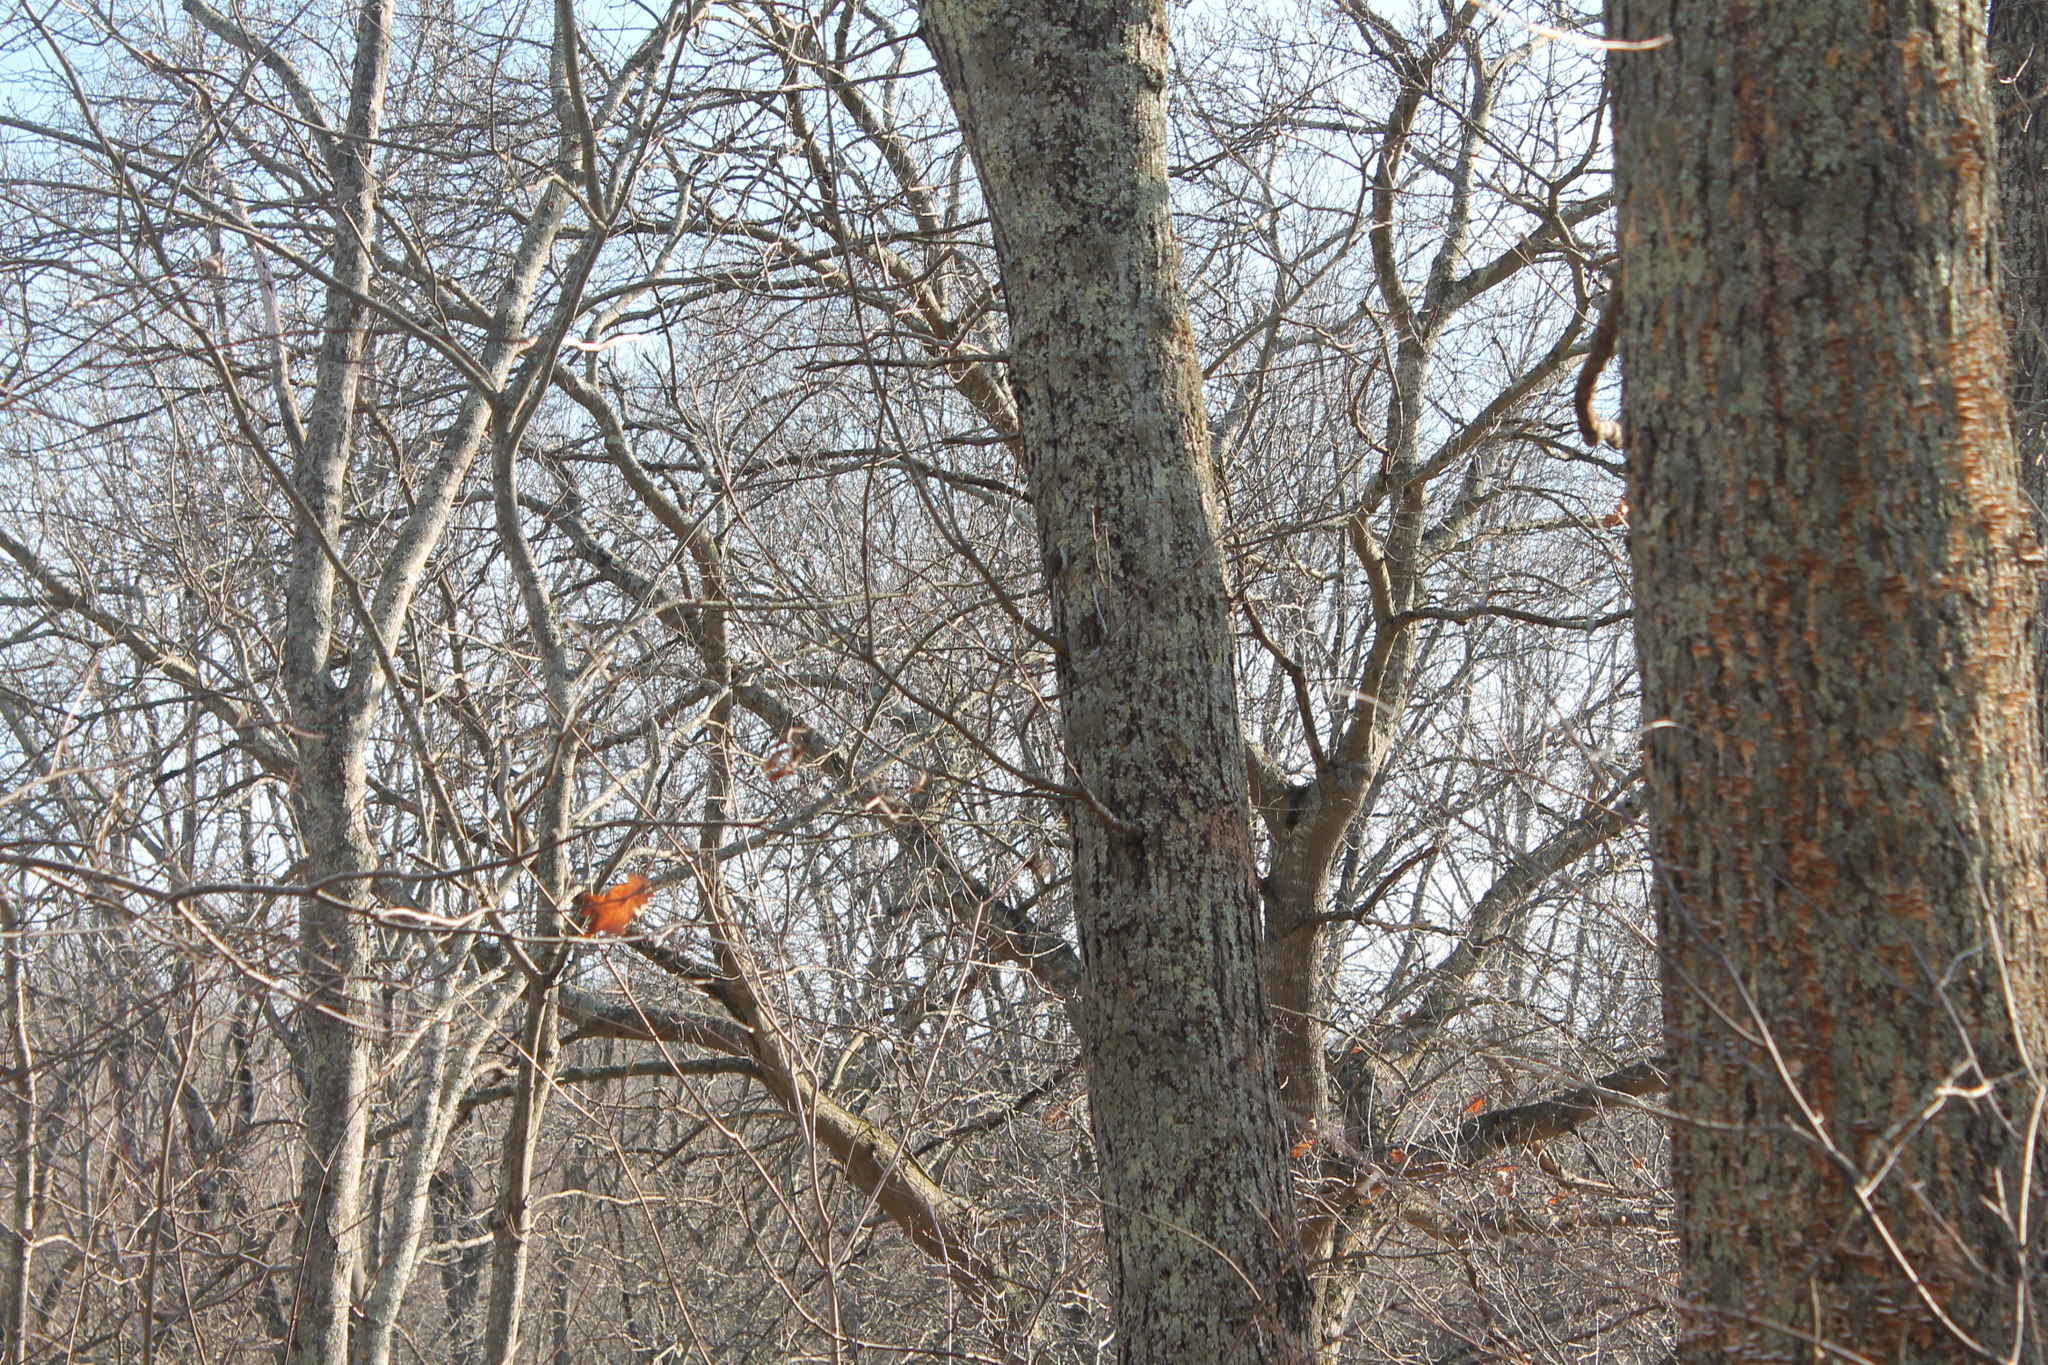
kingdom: Animalia
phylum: Chordata
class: Aves
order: Passeriformes
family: Certhiidae
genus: Certhia
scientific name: Certhia americana
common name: Brown creeper
